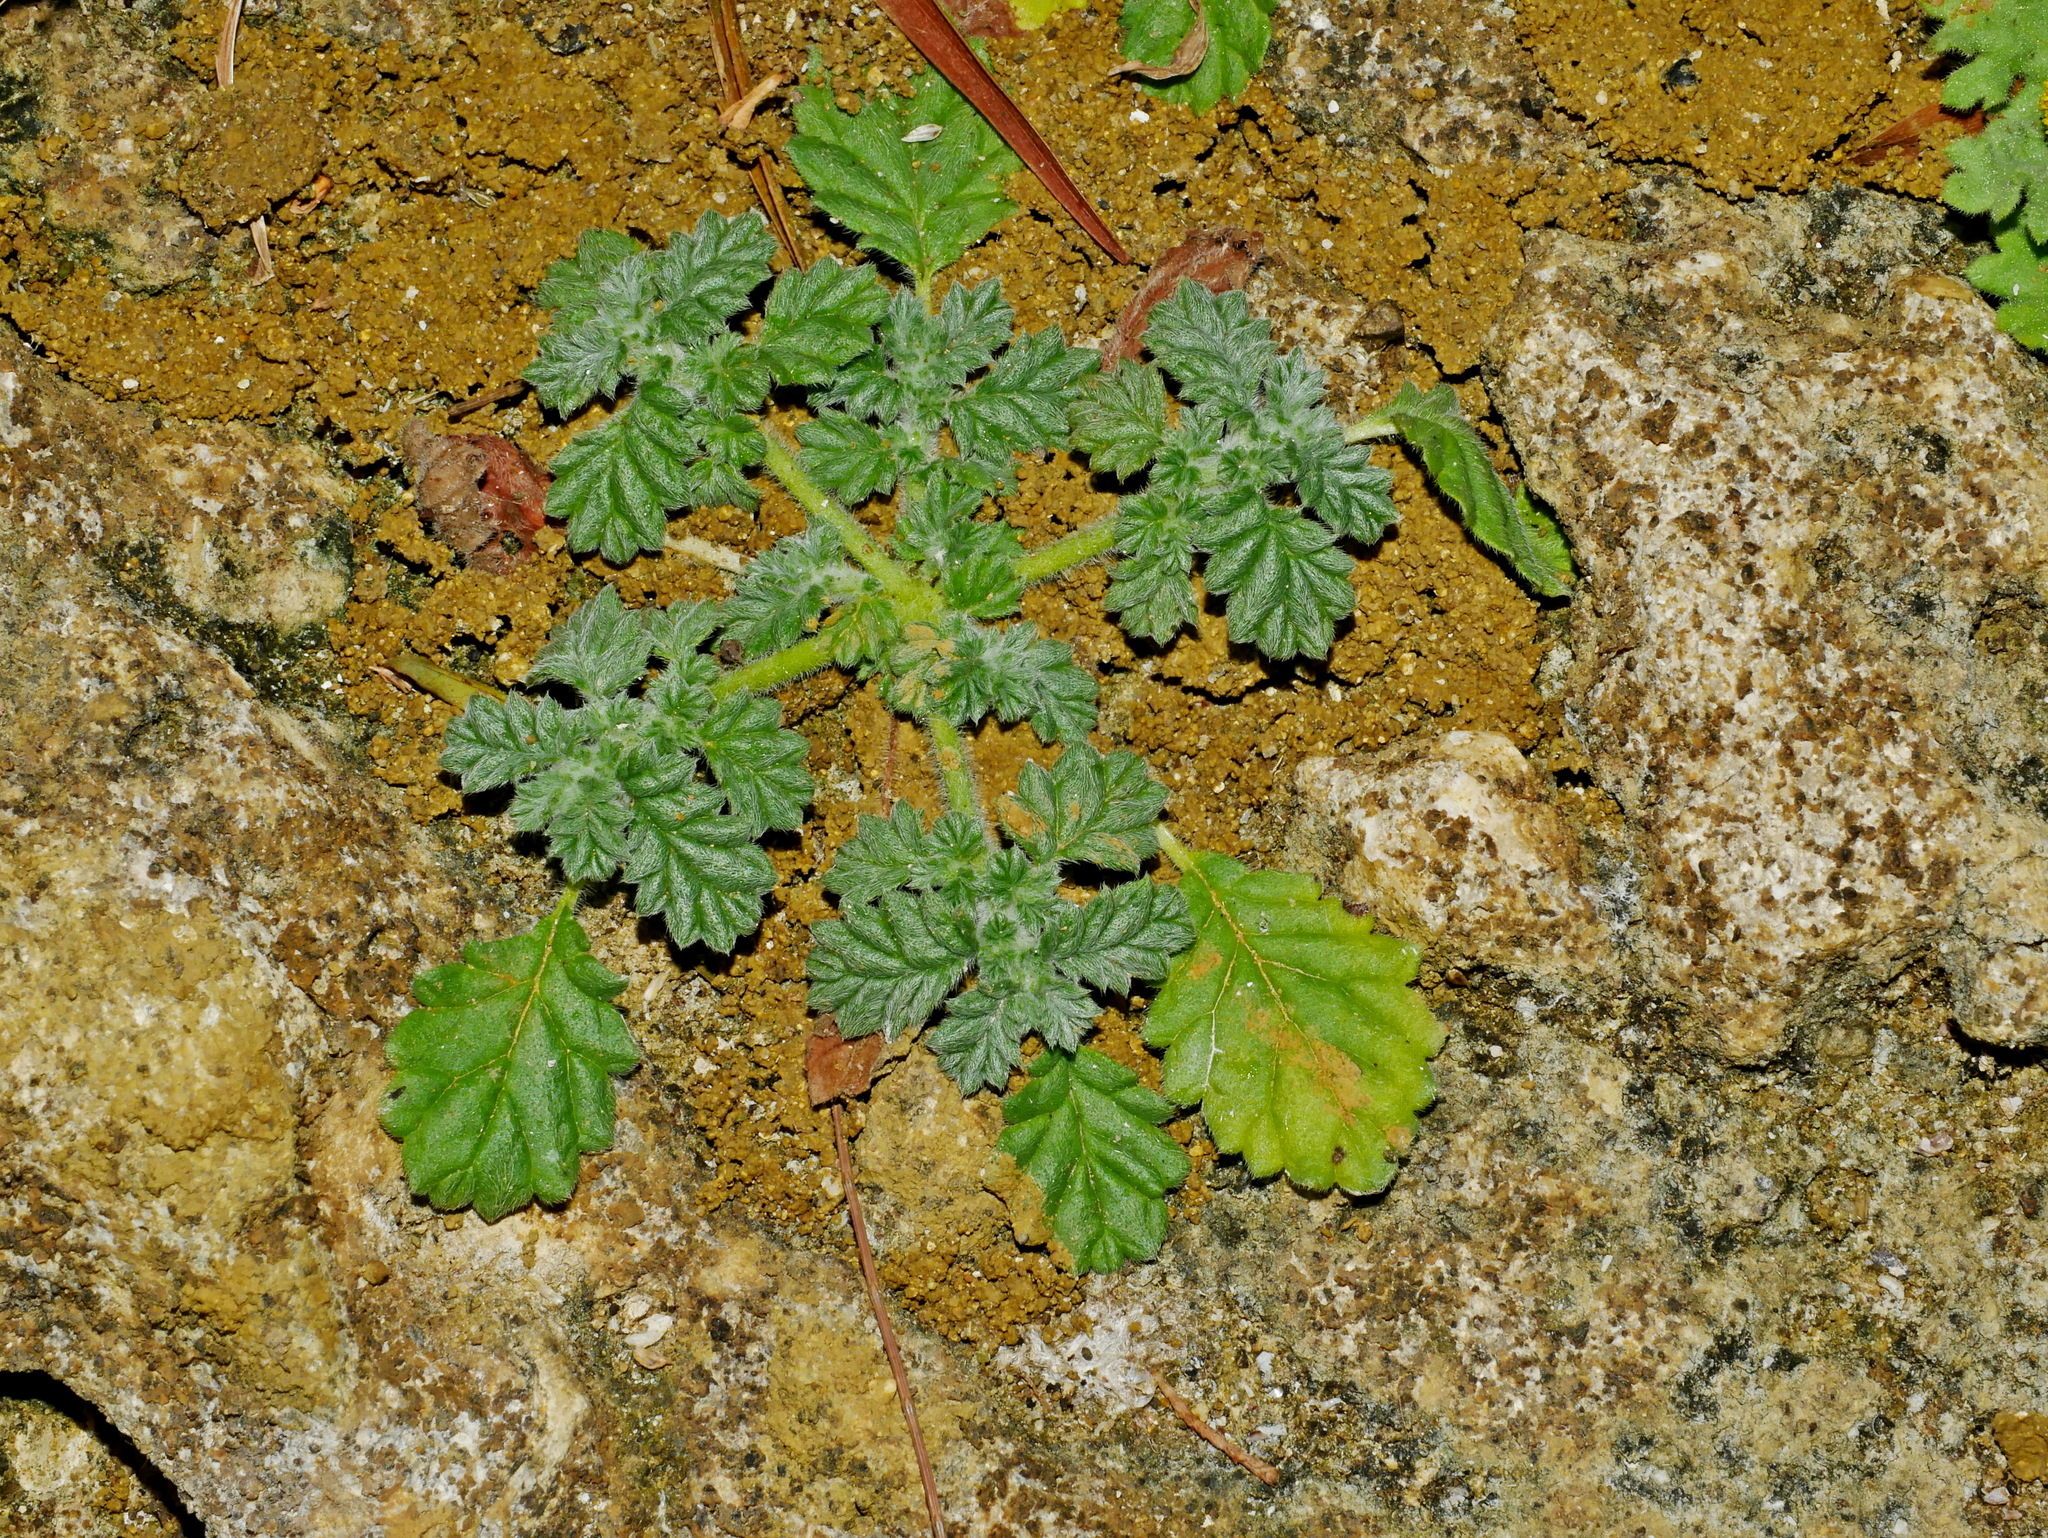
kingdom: Plantae
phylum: Tracheophyta
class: Magnoliopsida
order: Boraginales
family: Coldeniaceae
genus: Coldenia
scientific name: Coldenia procumbens
